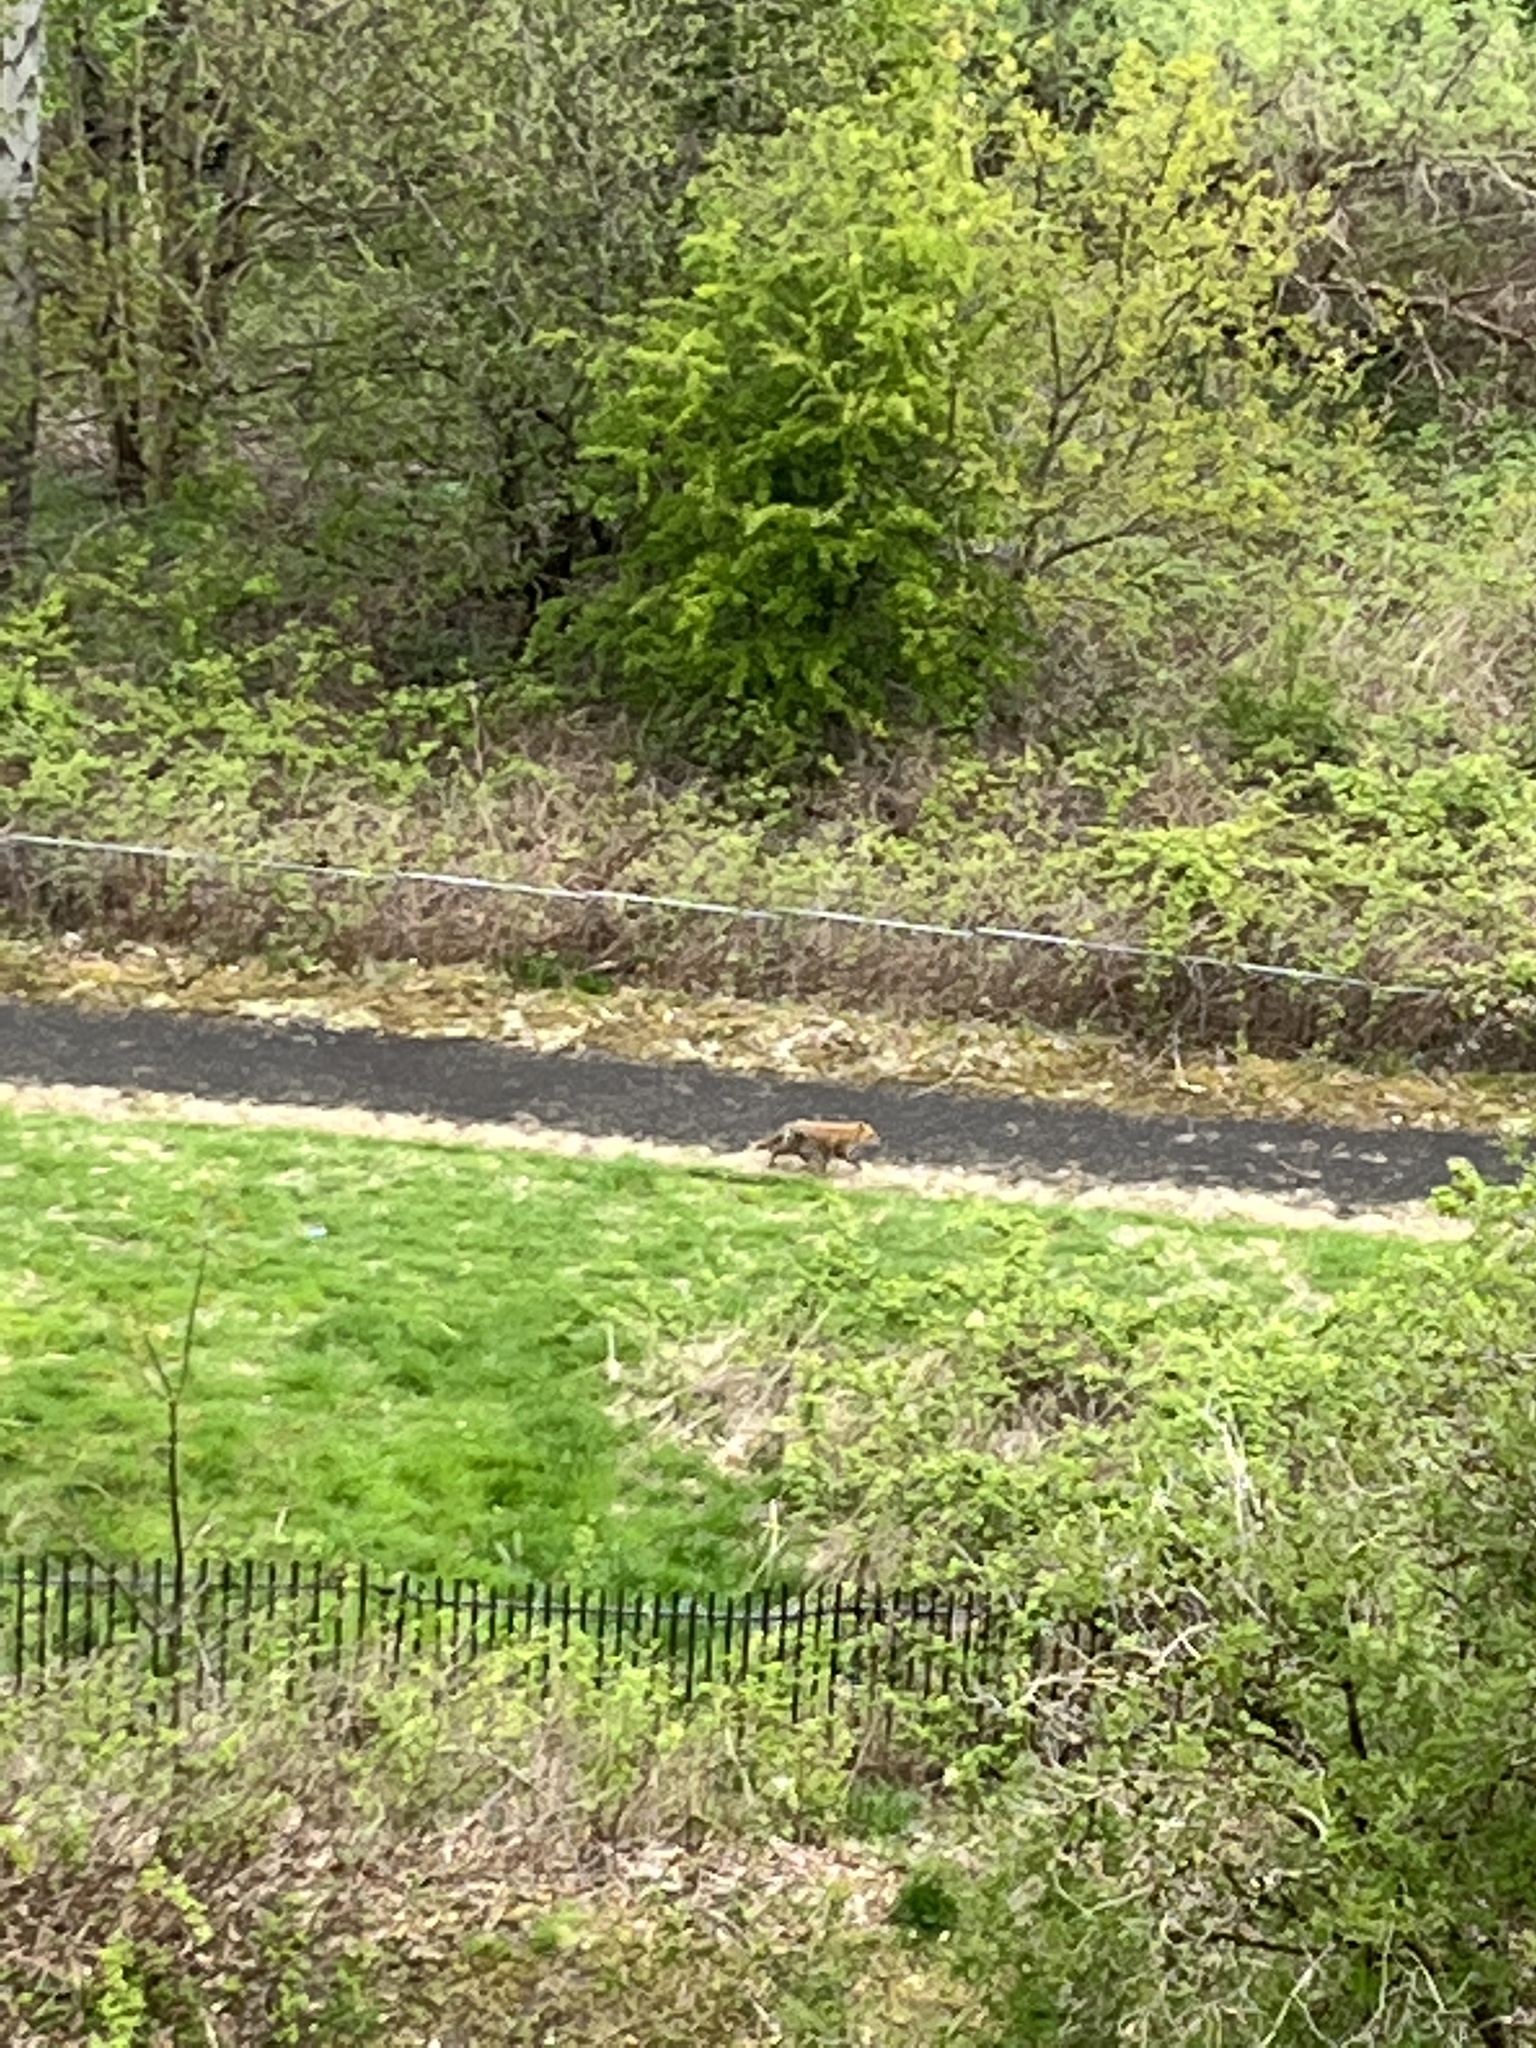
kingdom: Animalia
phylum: Chordata
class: Mammalia
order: Carnivora
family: Canidae
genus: Vulpes
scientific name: Vulpes vulpes
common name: Red fox
